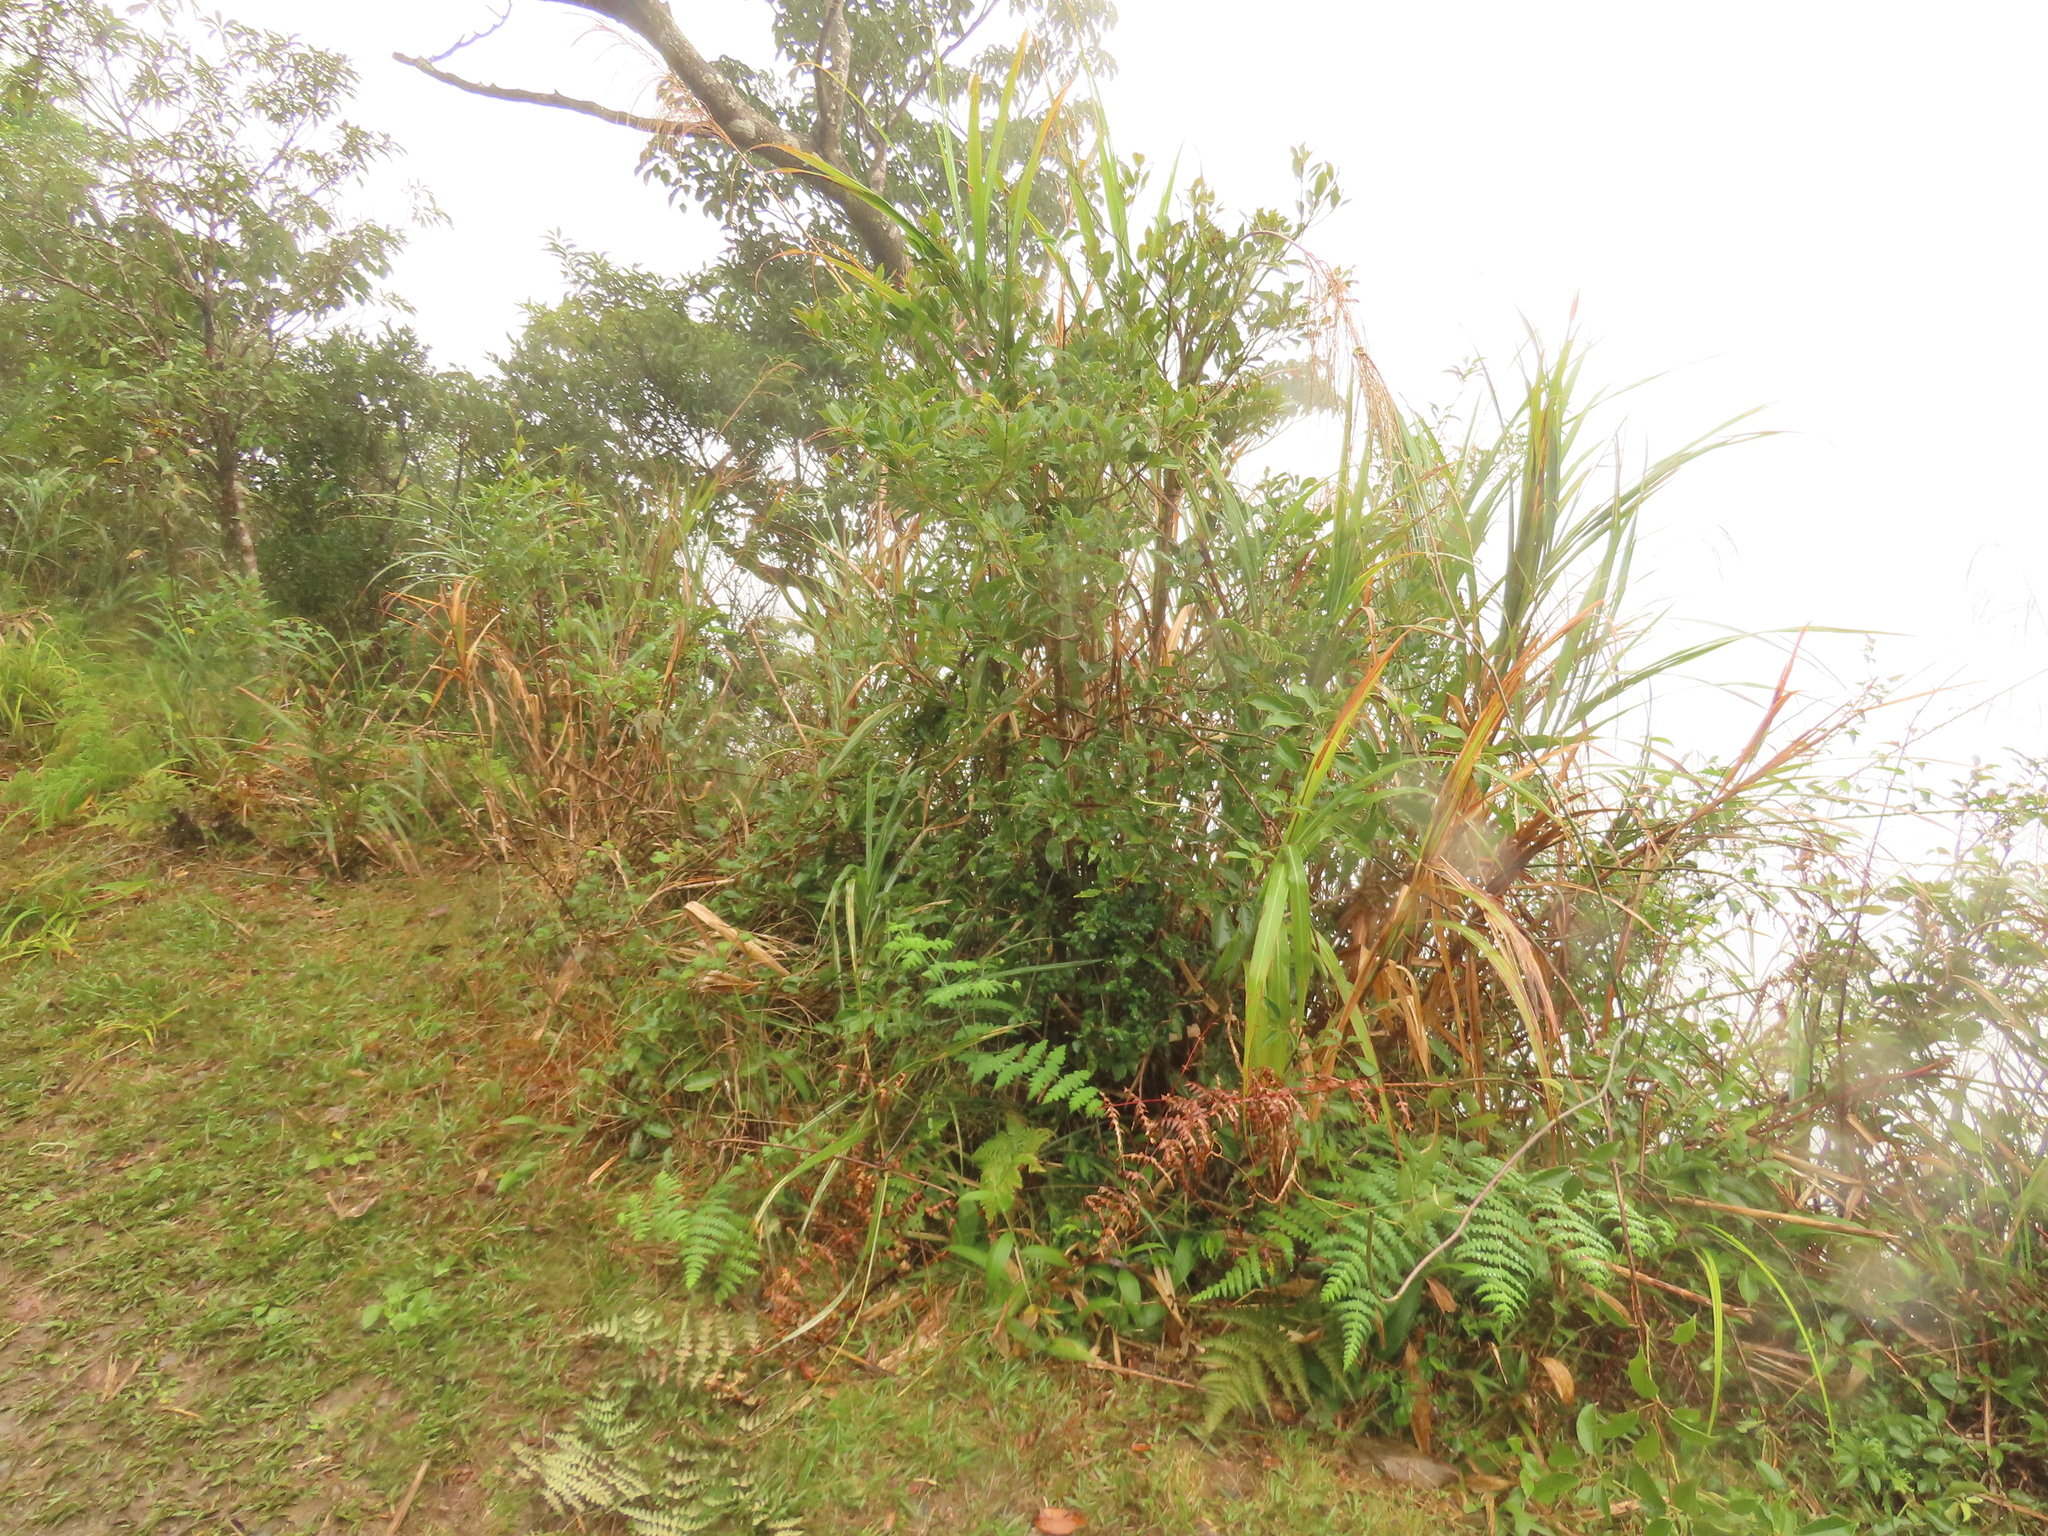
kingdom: Plantae
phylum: Tracheophyta
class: Polypodiopsida
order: Polypodiales
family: Dennstaedtiaceae
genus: Histiopteris
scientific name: Histiopteris incisa
